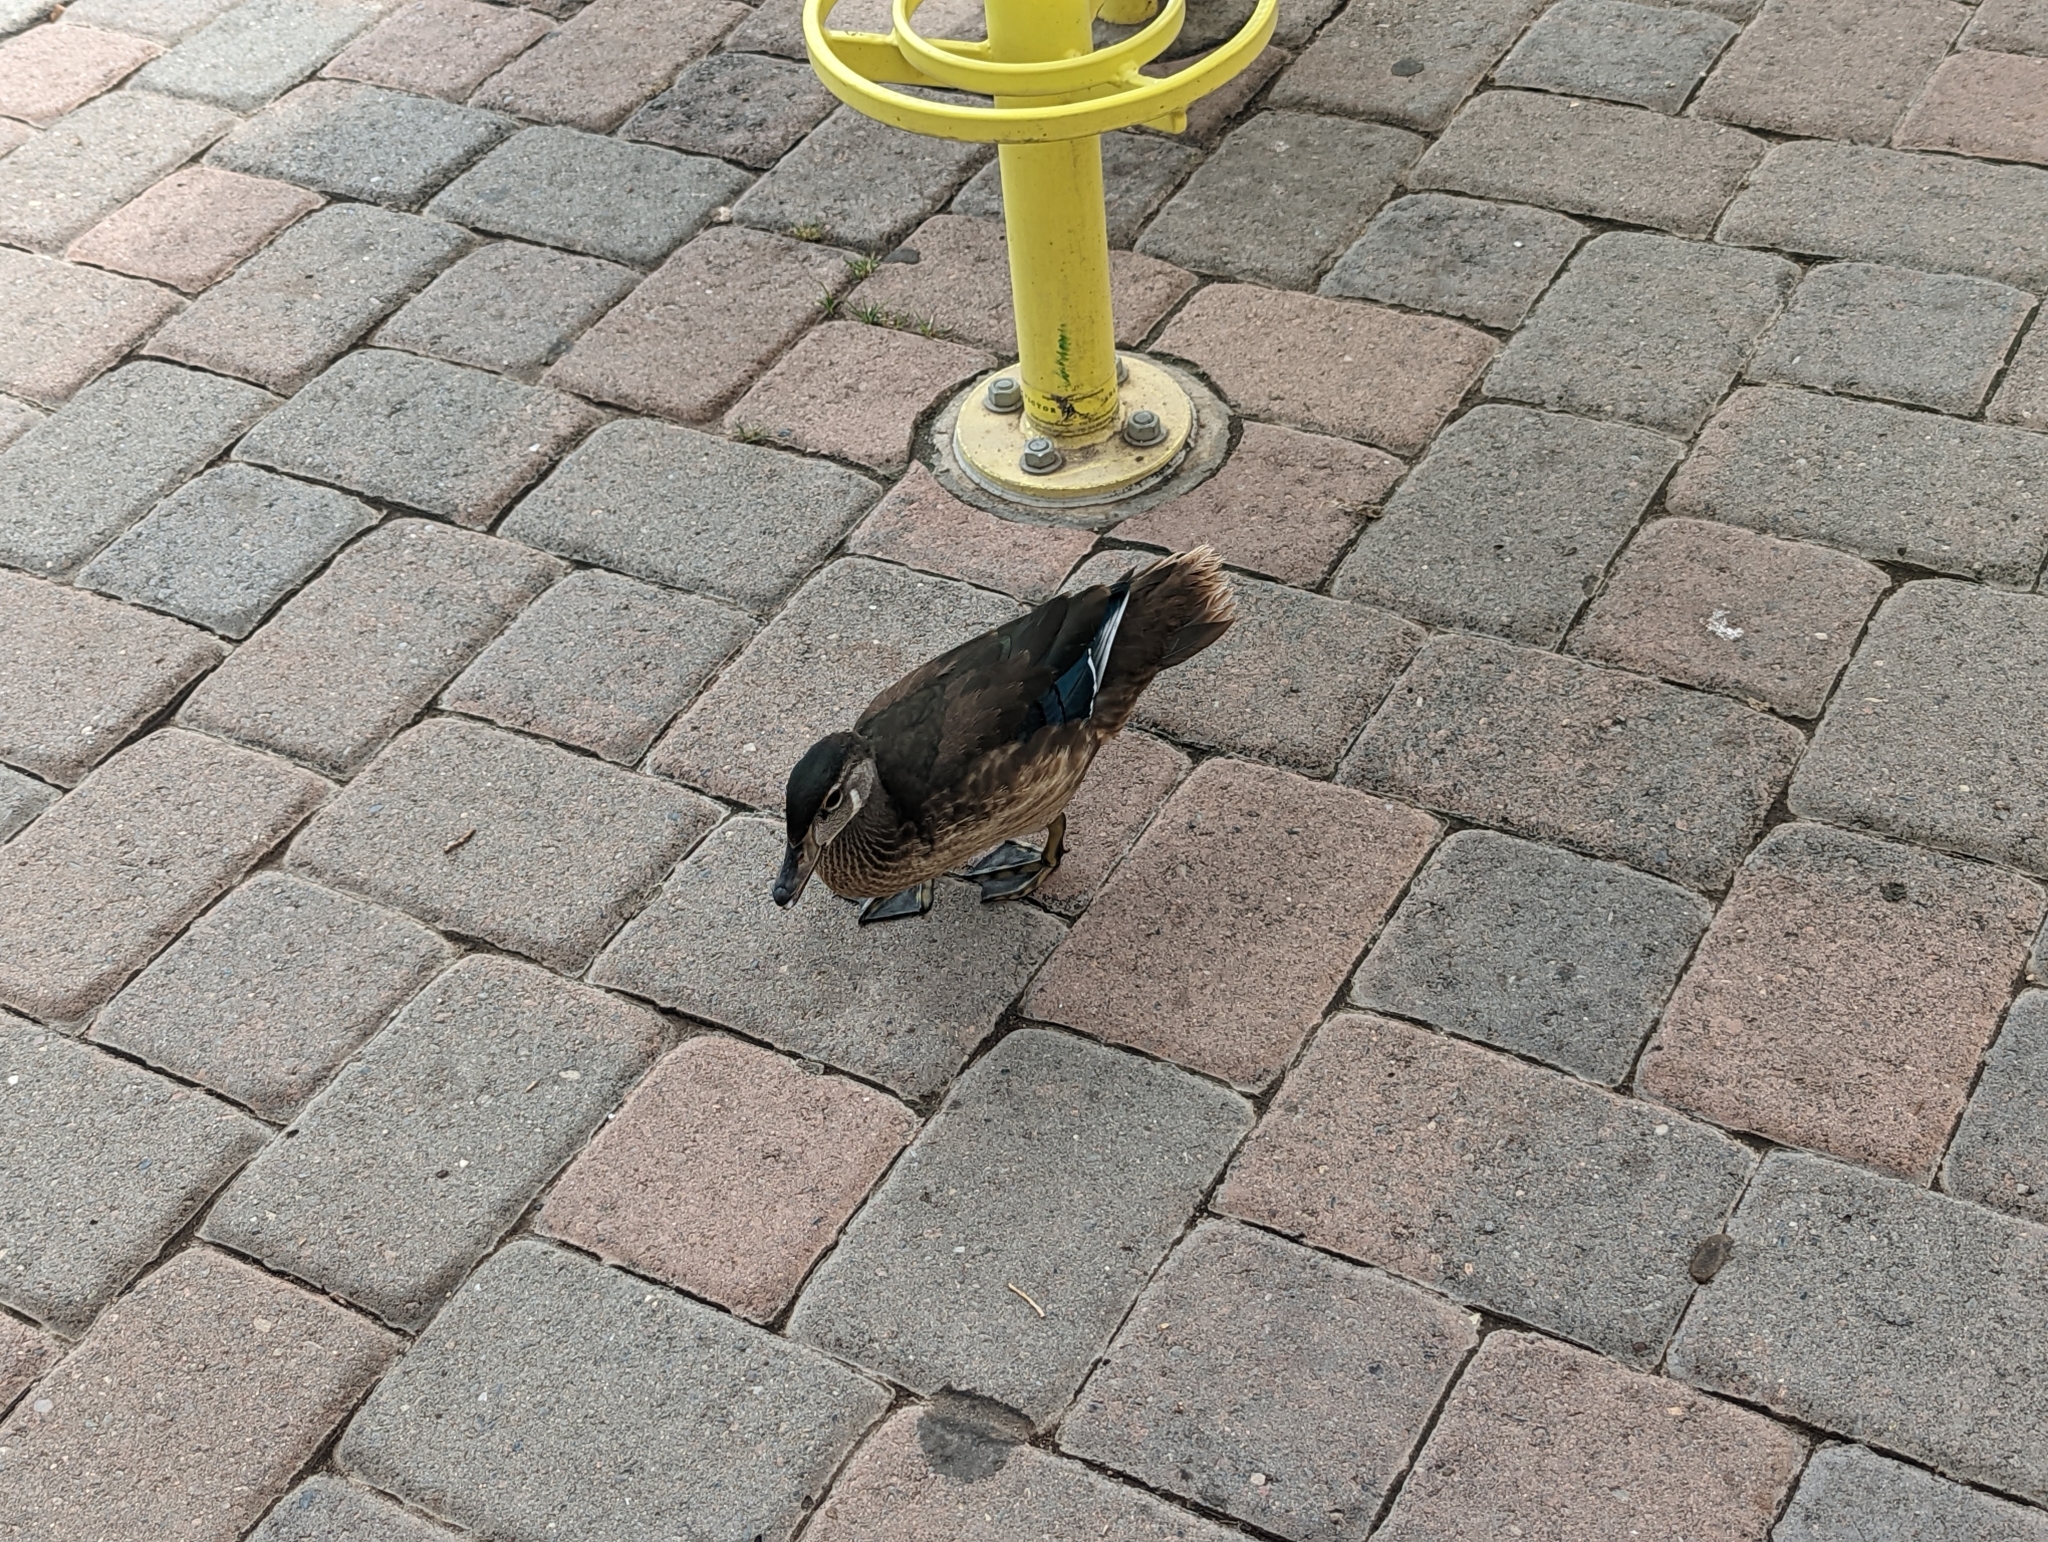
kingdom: Animalia
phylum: Chordata
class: Aves
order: Anseriformes
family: Anatidae
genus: Aix
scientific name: Aix sponsa
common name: Wood duck
